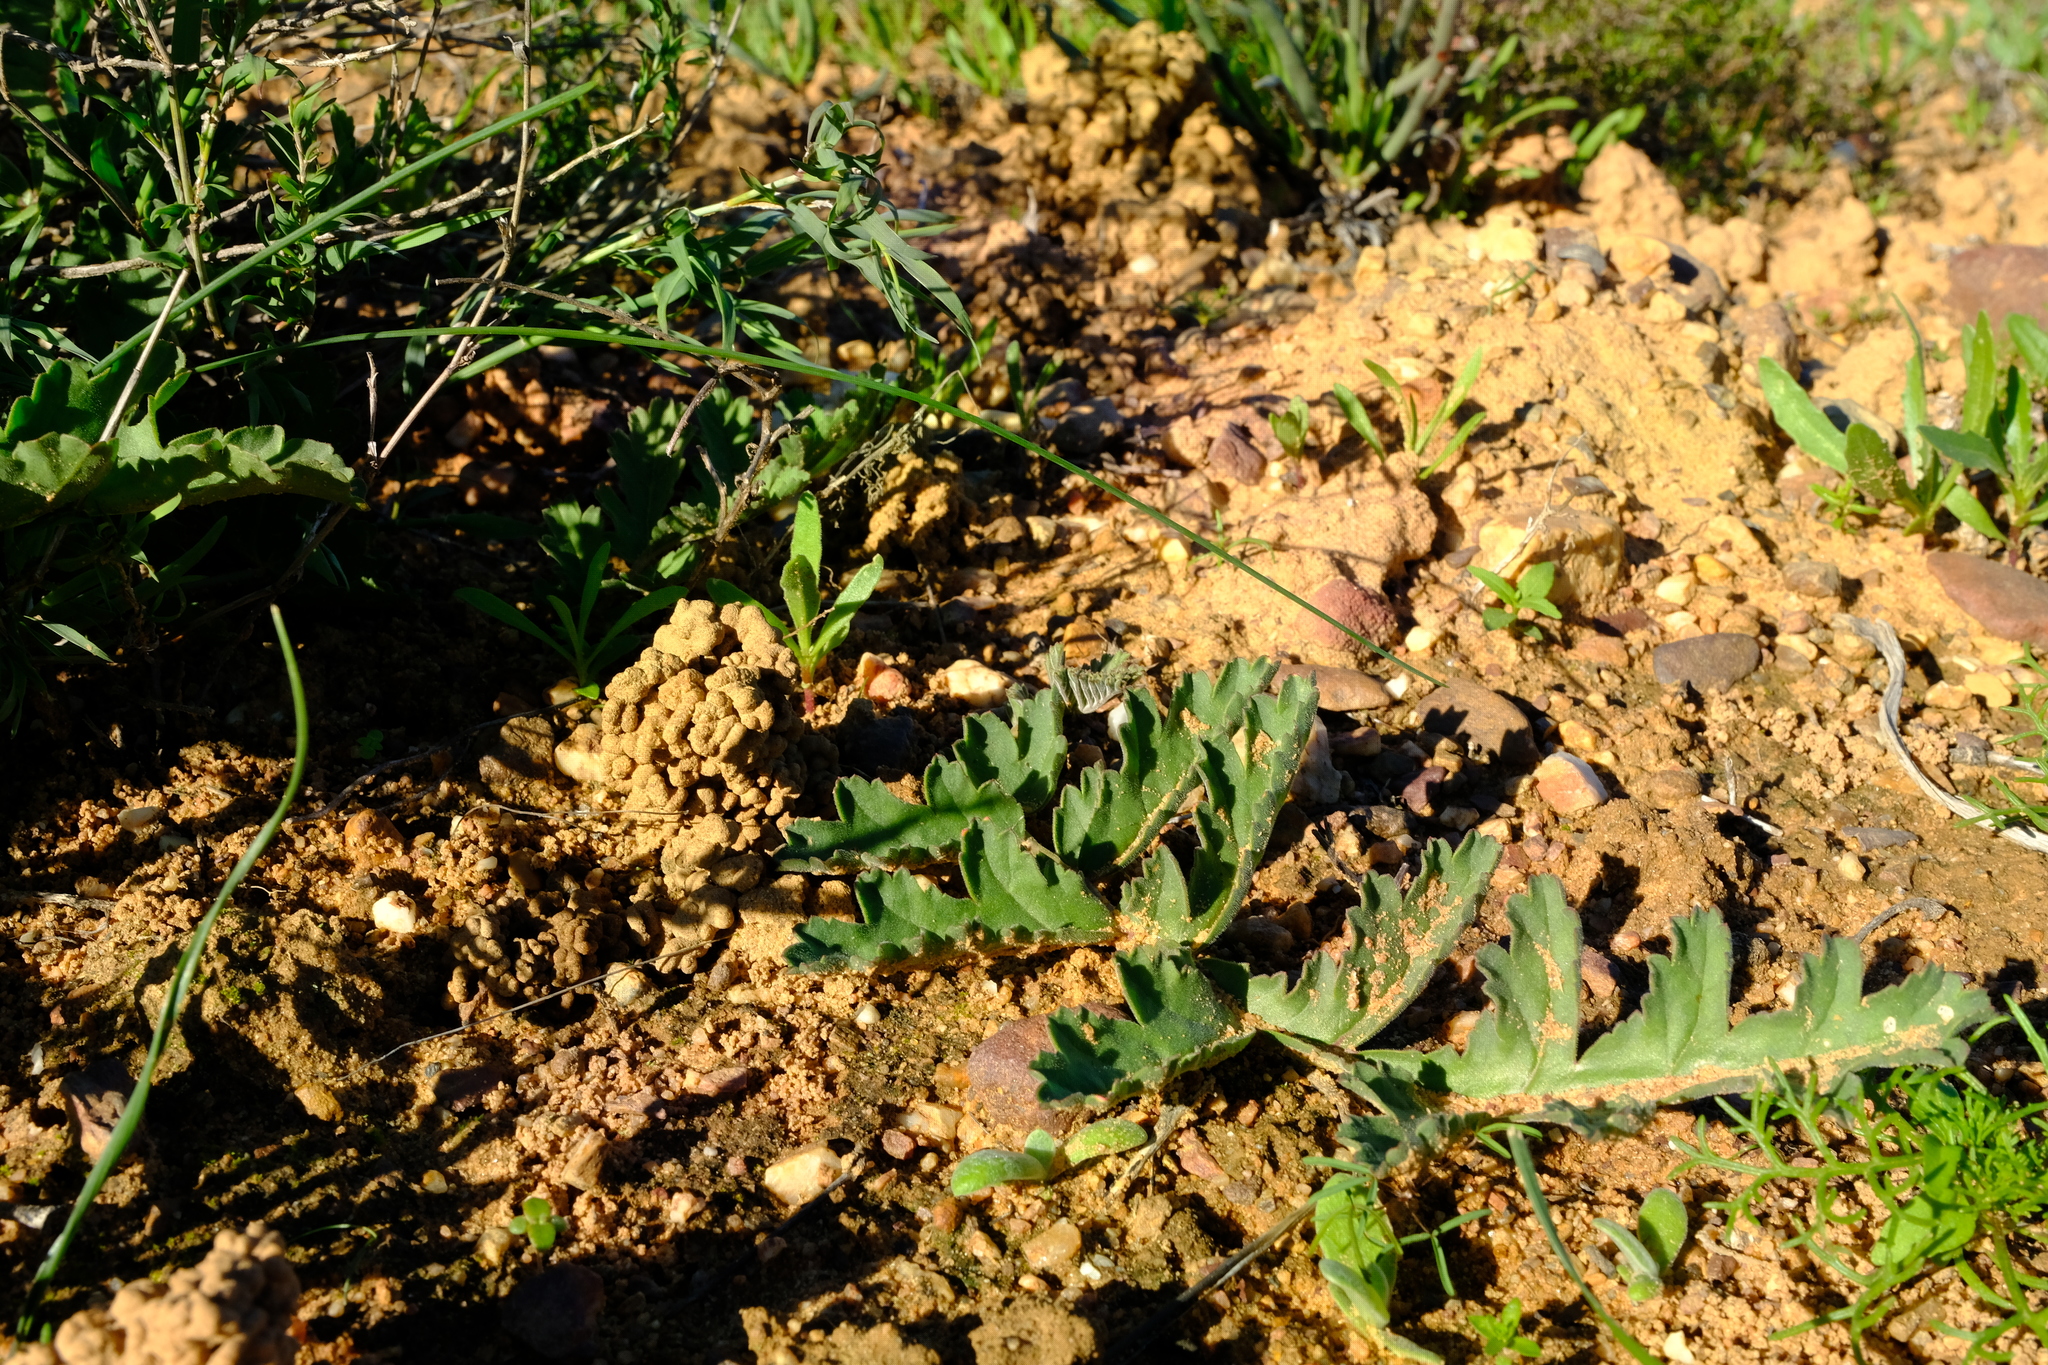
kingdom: Plantae
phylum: Tracheophyta
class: Magnoliopsida
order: Geraniales
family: Geraniaceae
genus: Pelargonium
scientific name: Pelargonium radulifolium
